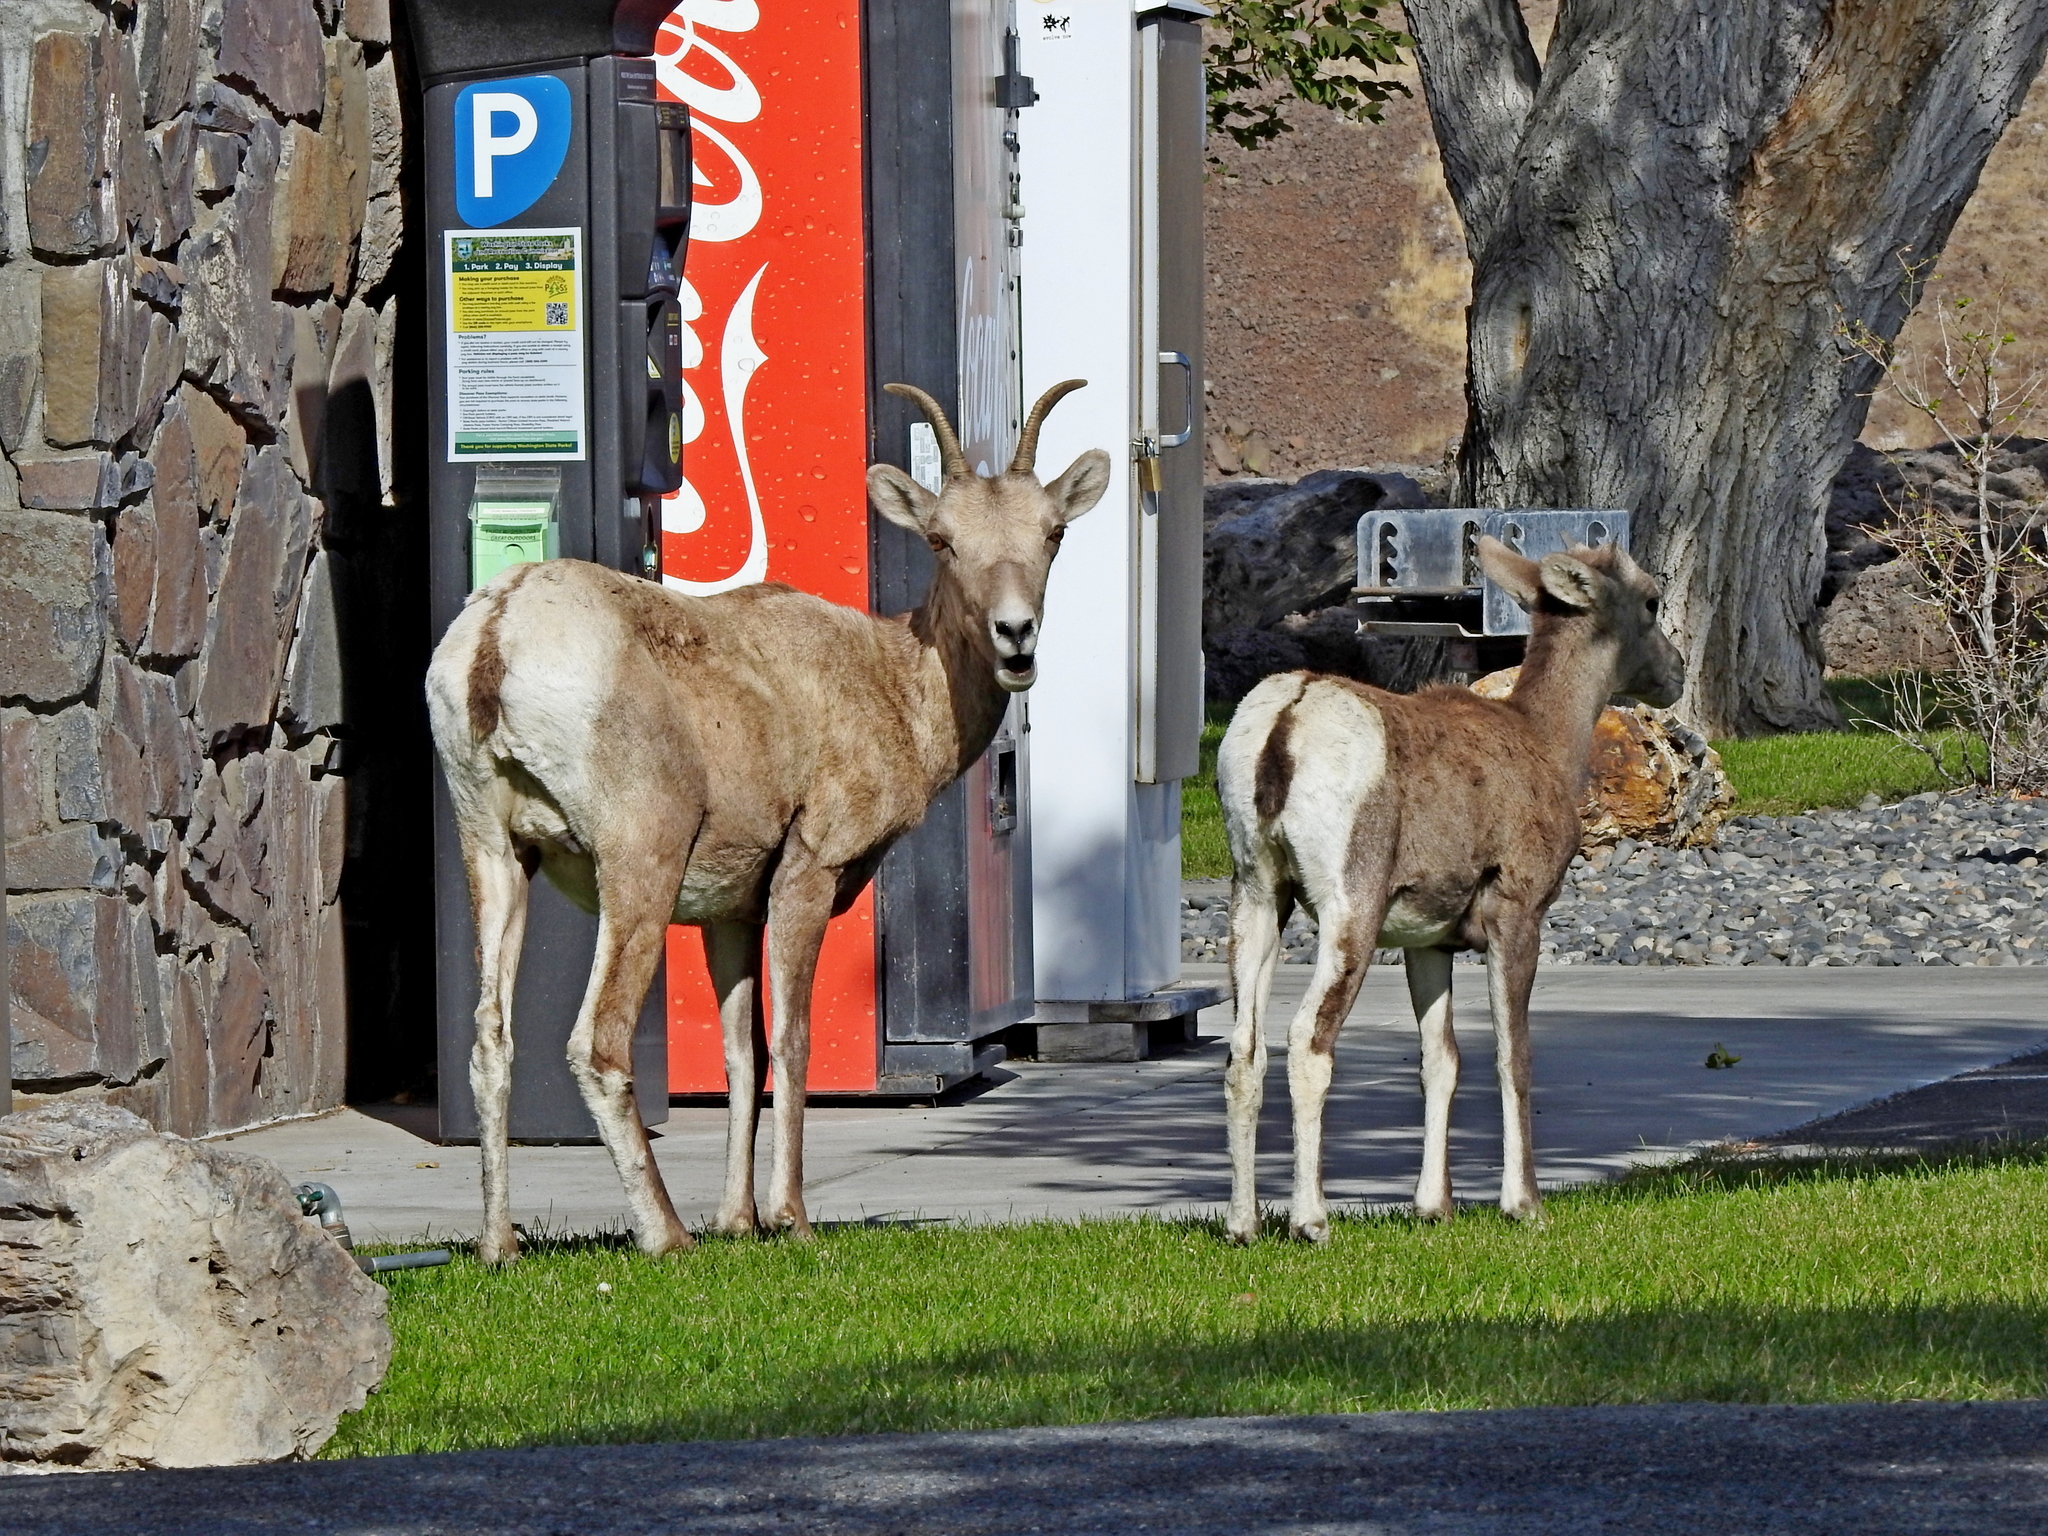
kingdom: Animalia
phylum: Chordata
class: Mammalia
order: Artiodactyla
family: Bovidae
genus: Ovis
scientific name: Ovis canadensis
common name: Bighorn sheep
